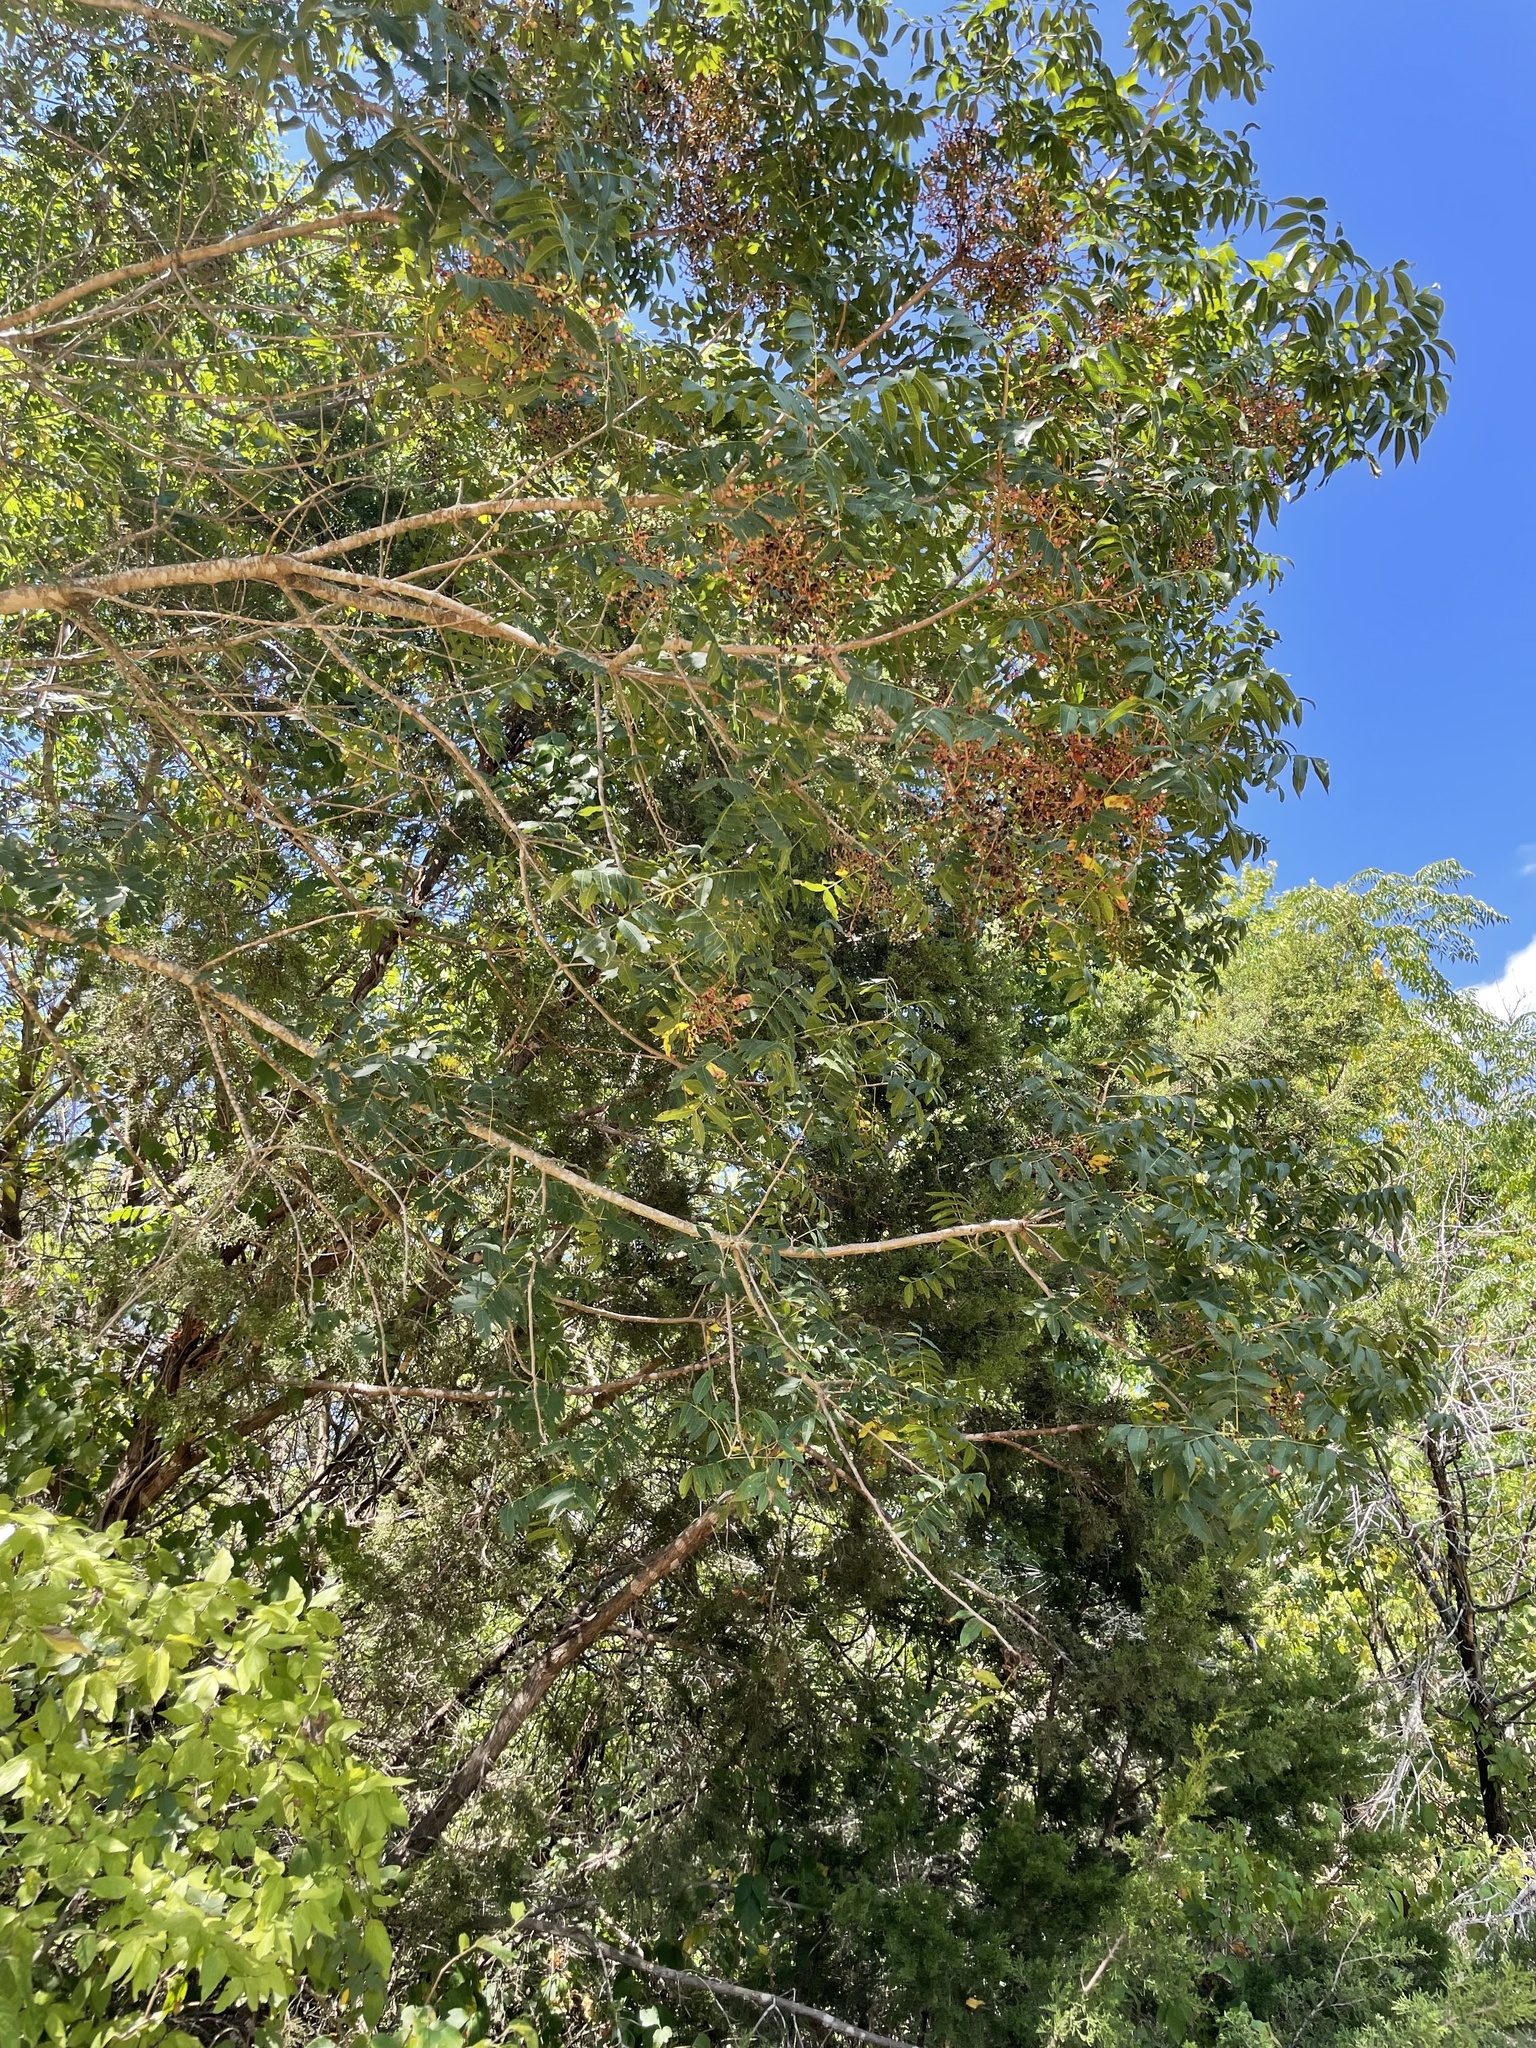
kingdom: Plantae
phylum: Tracheophyta
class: Magnoliopsida
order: Sapindales
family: Anacardiaceae
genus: Pistacia
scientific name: Pistacia chinensis
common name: Chinese pistache
